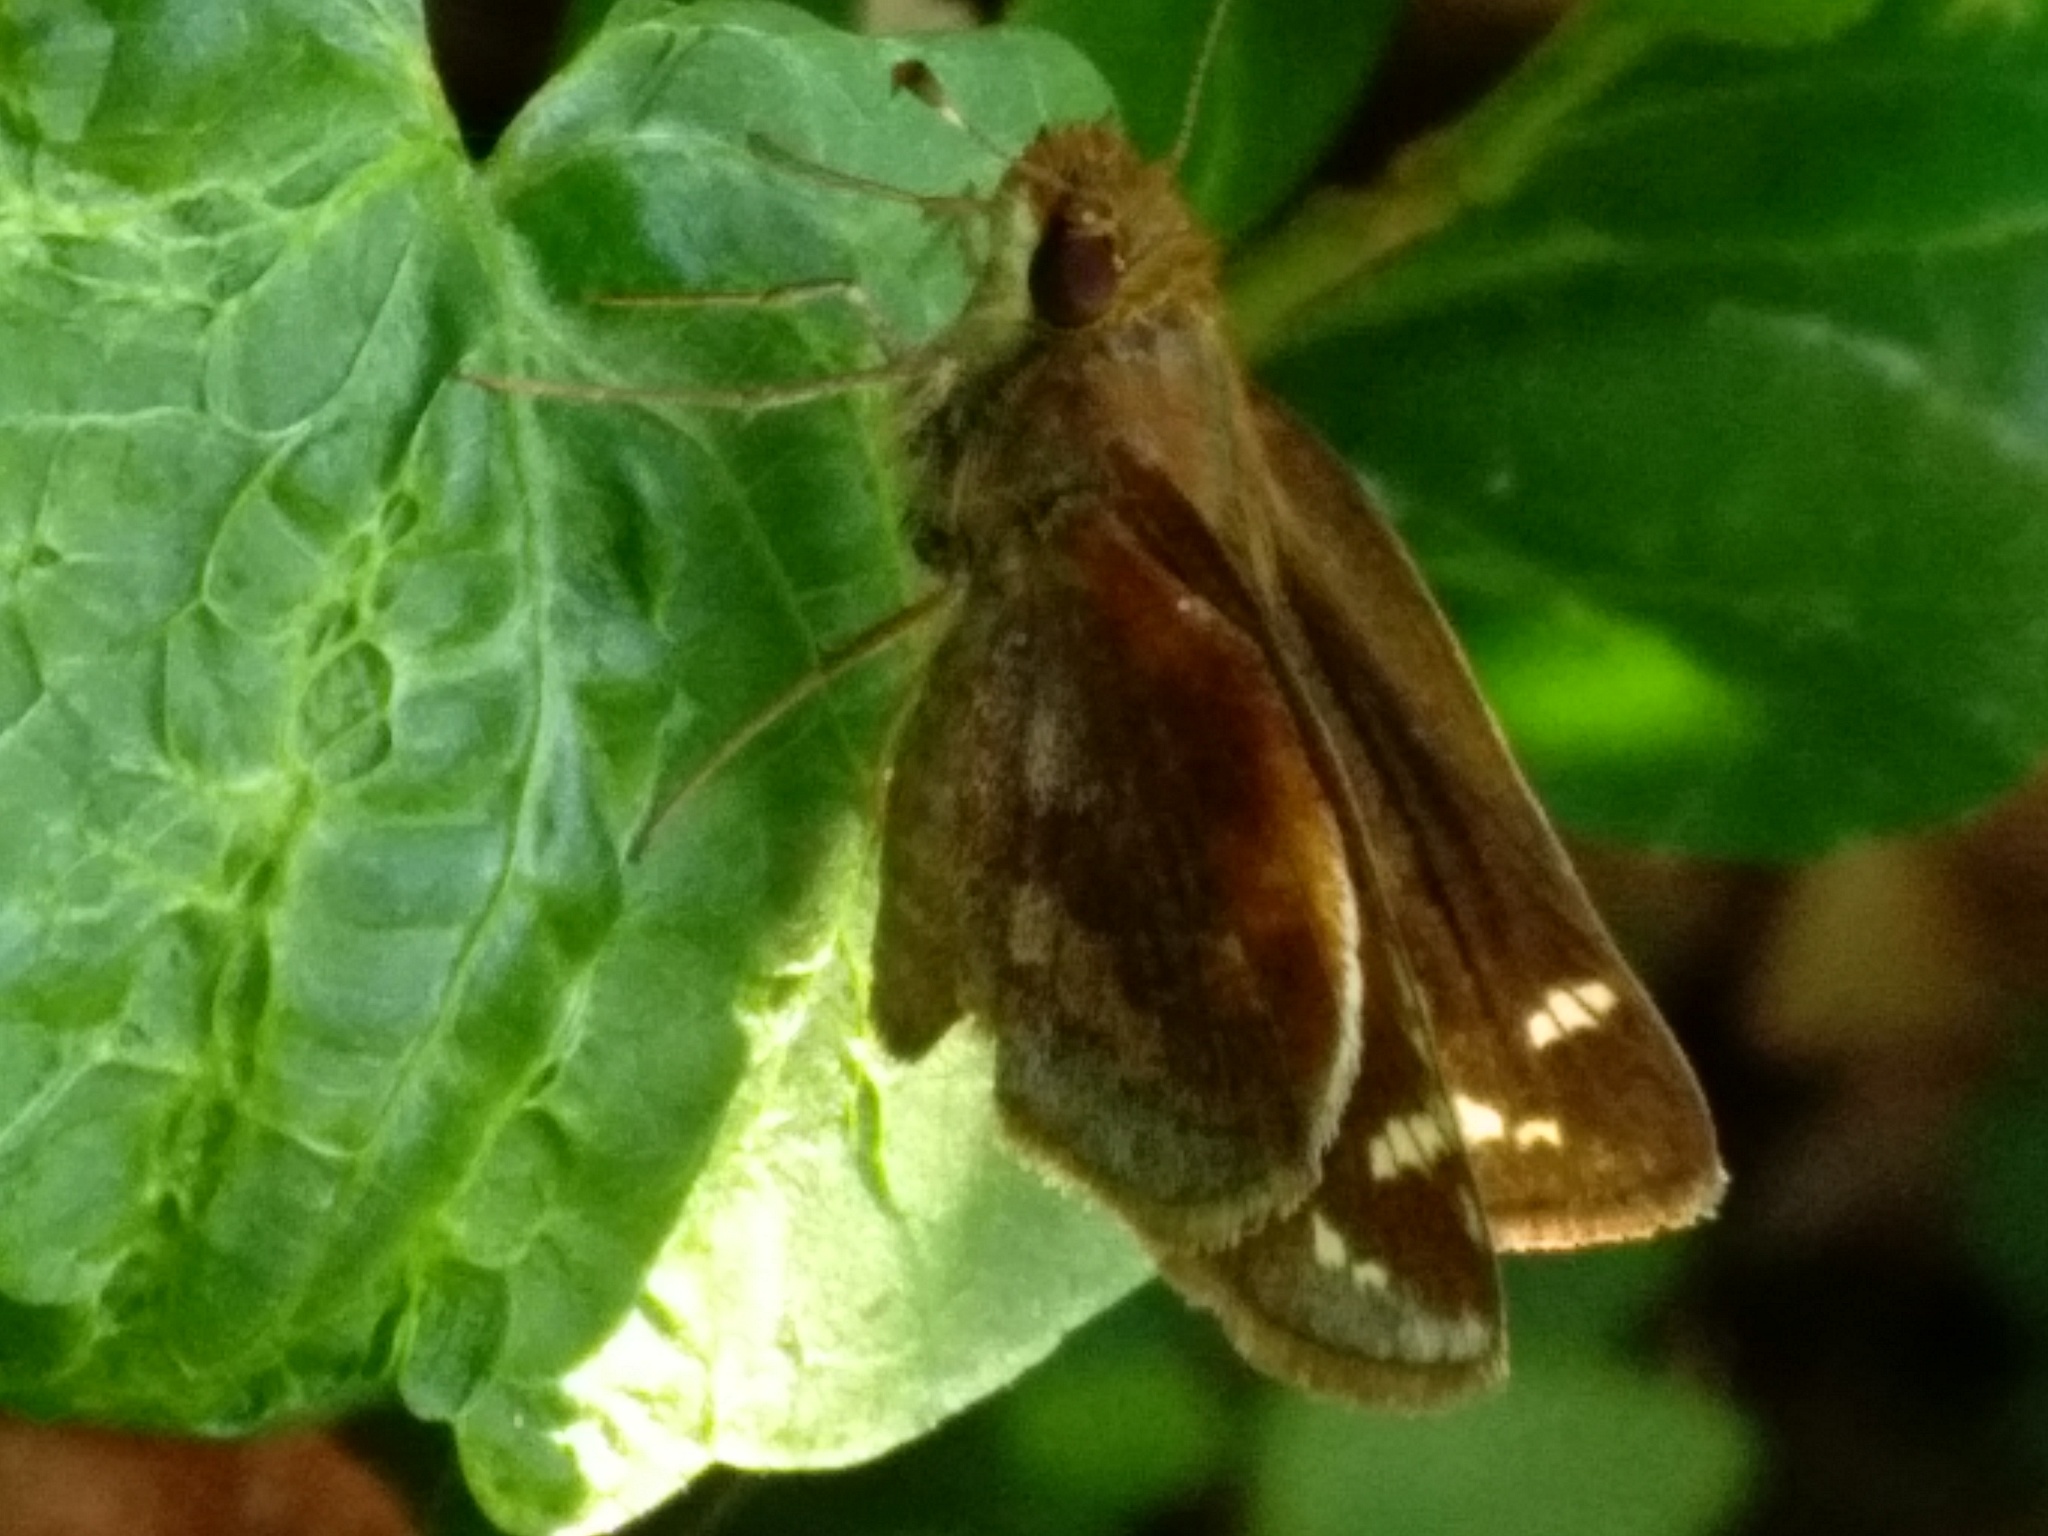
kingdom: Animalia
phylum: Arthropoda
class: Insecta
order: Lepidoptera
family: Hesperiidae
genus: Lon
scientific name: Lon zabulon
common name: Zabulon skipper
